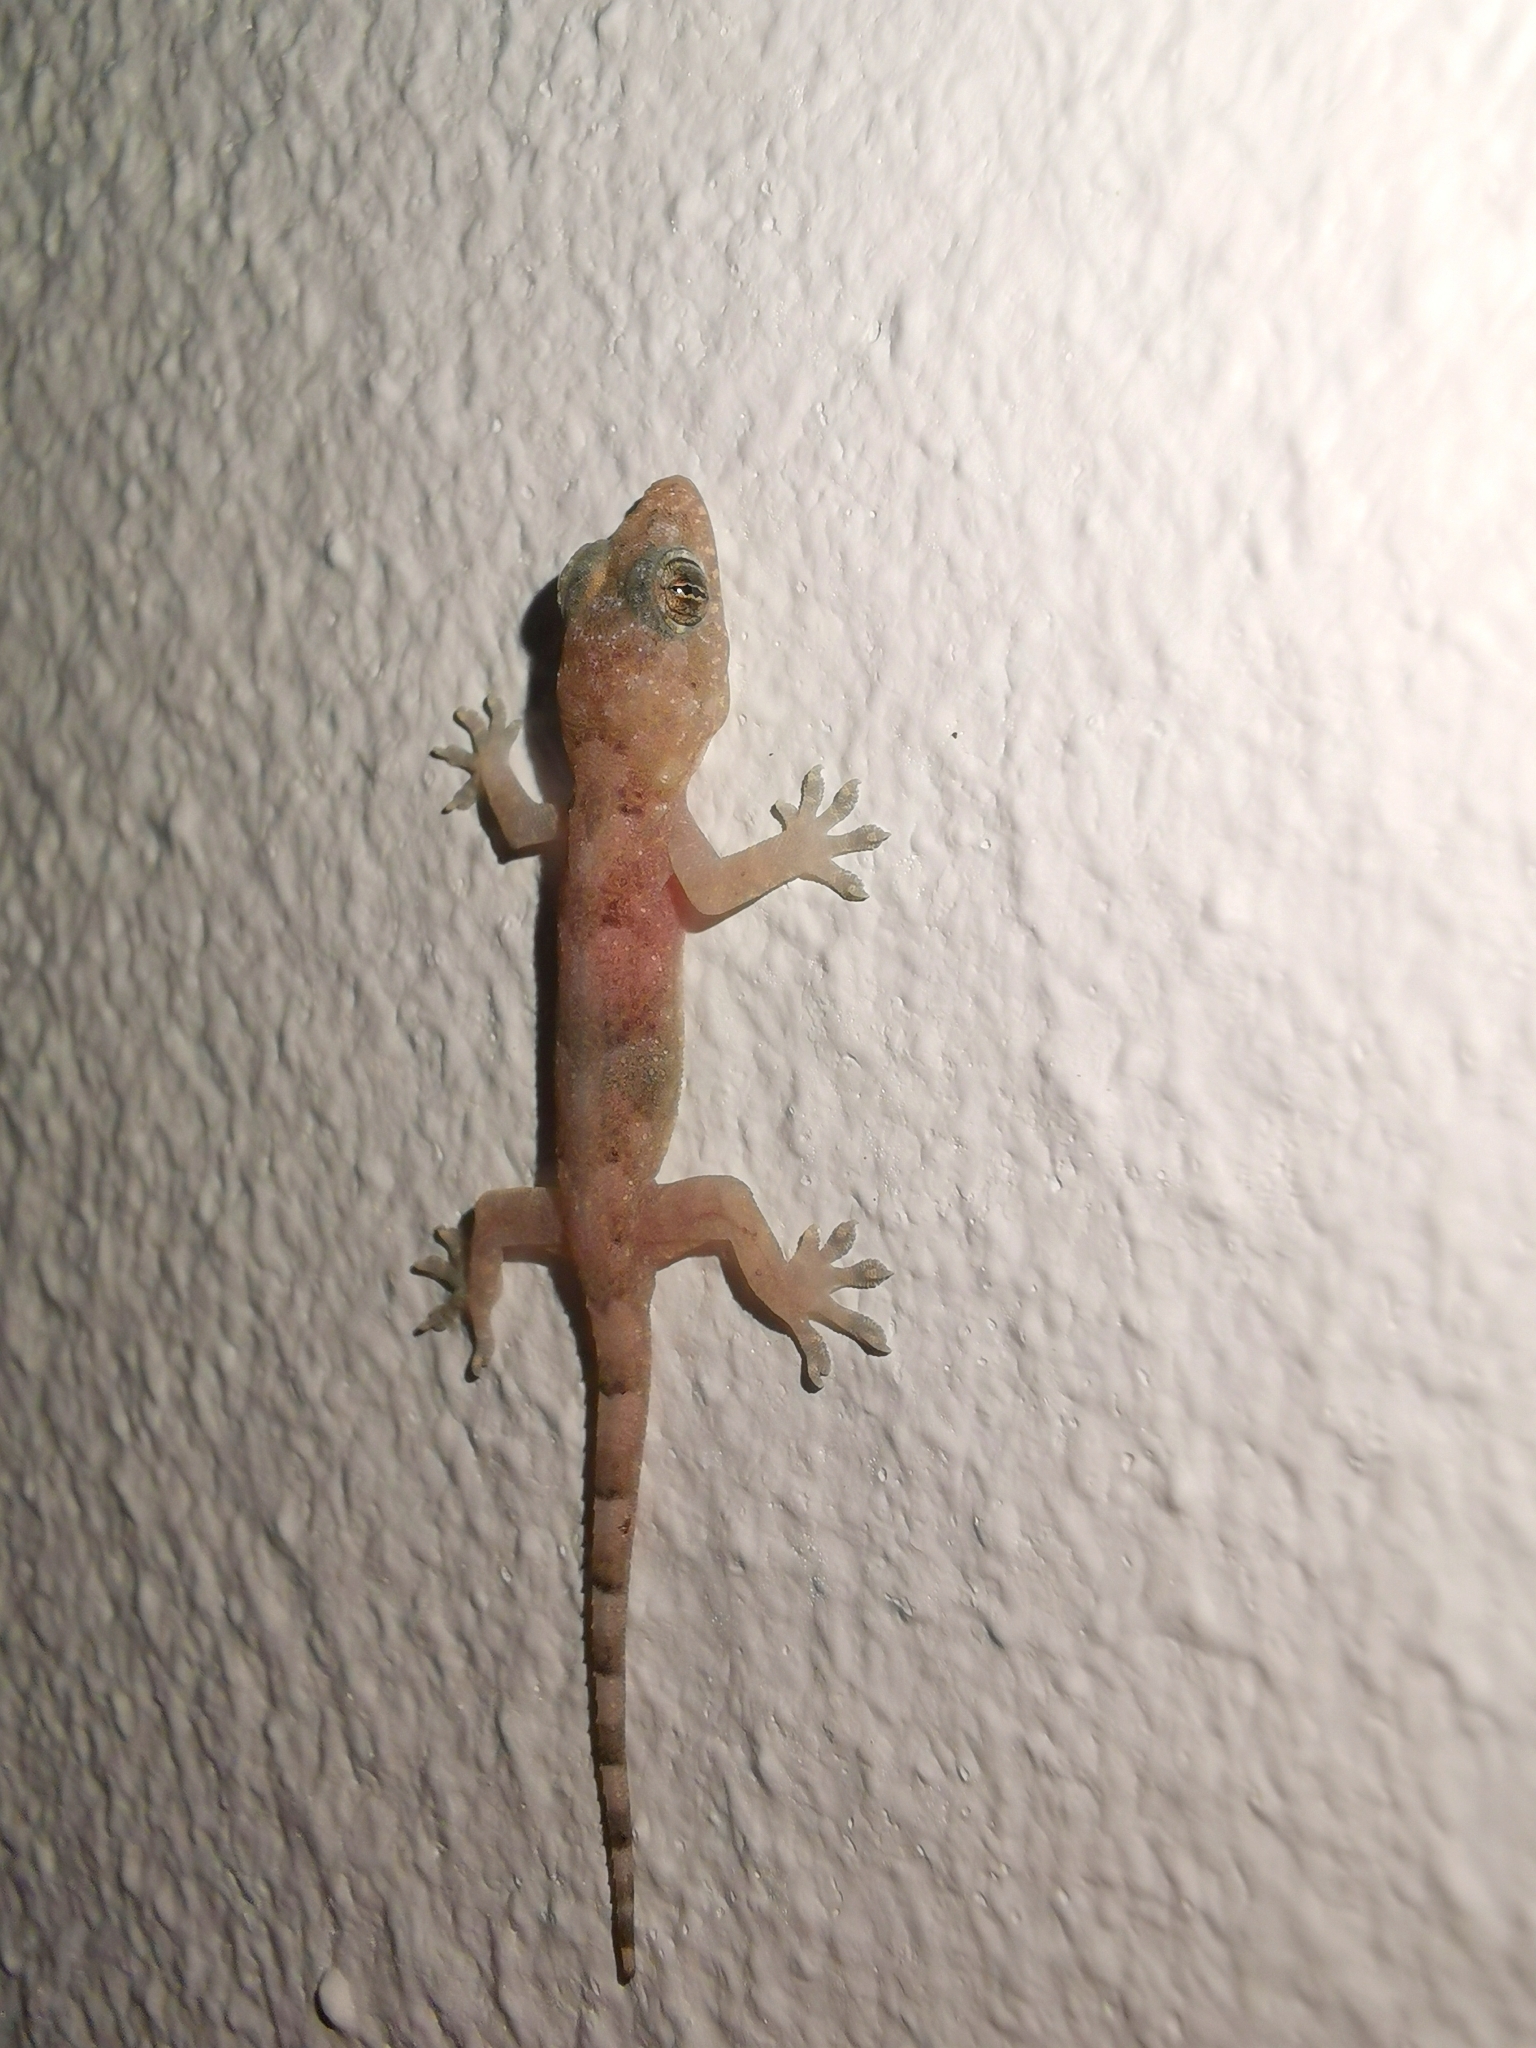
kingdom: Animalia
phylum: Chordata
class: Squamata
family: Gekkonidae
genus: Hemidactylus
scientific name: Hemidactylus mabouia
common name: House gecko
